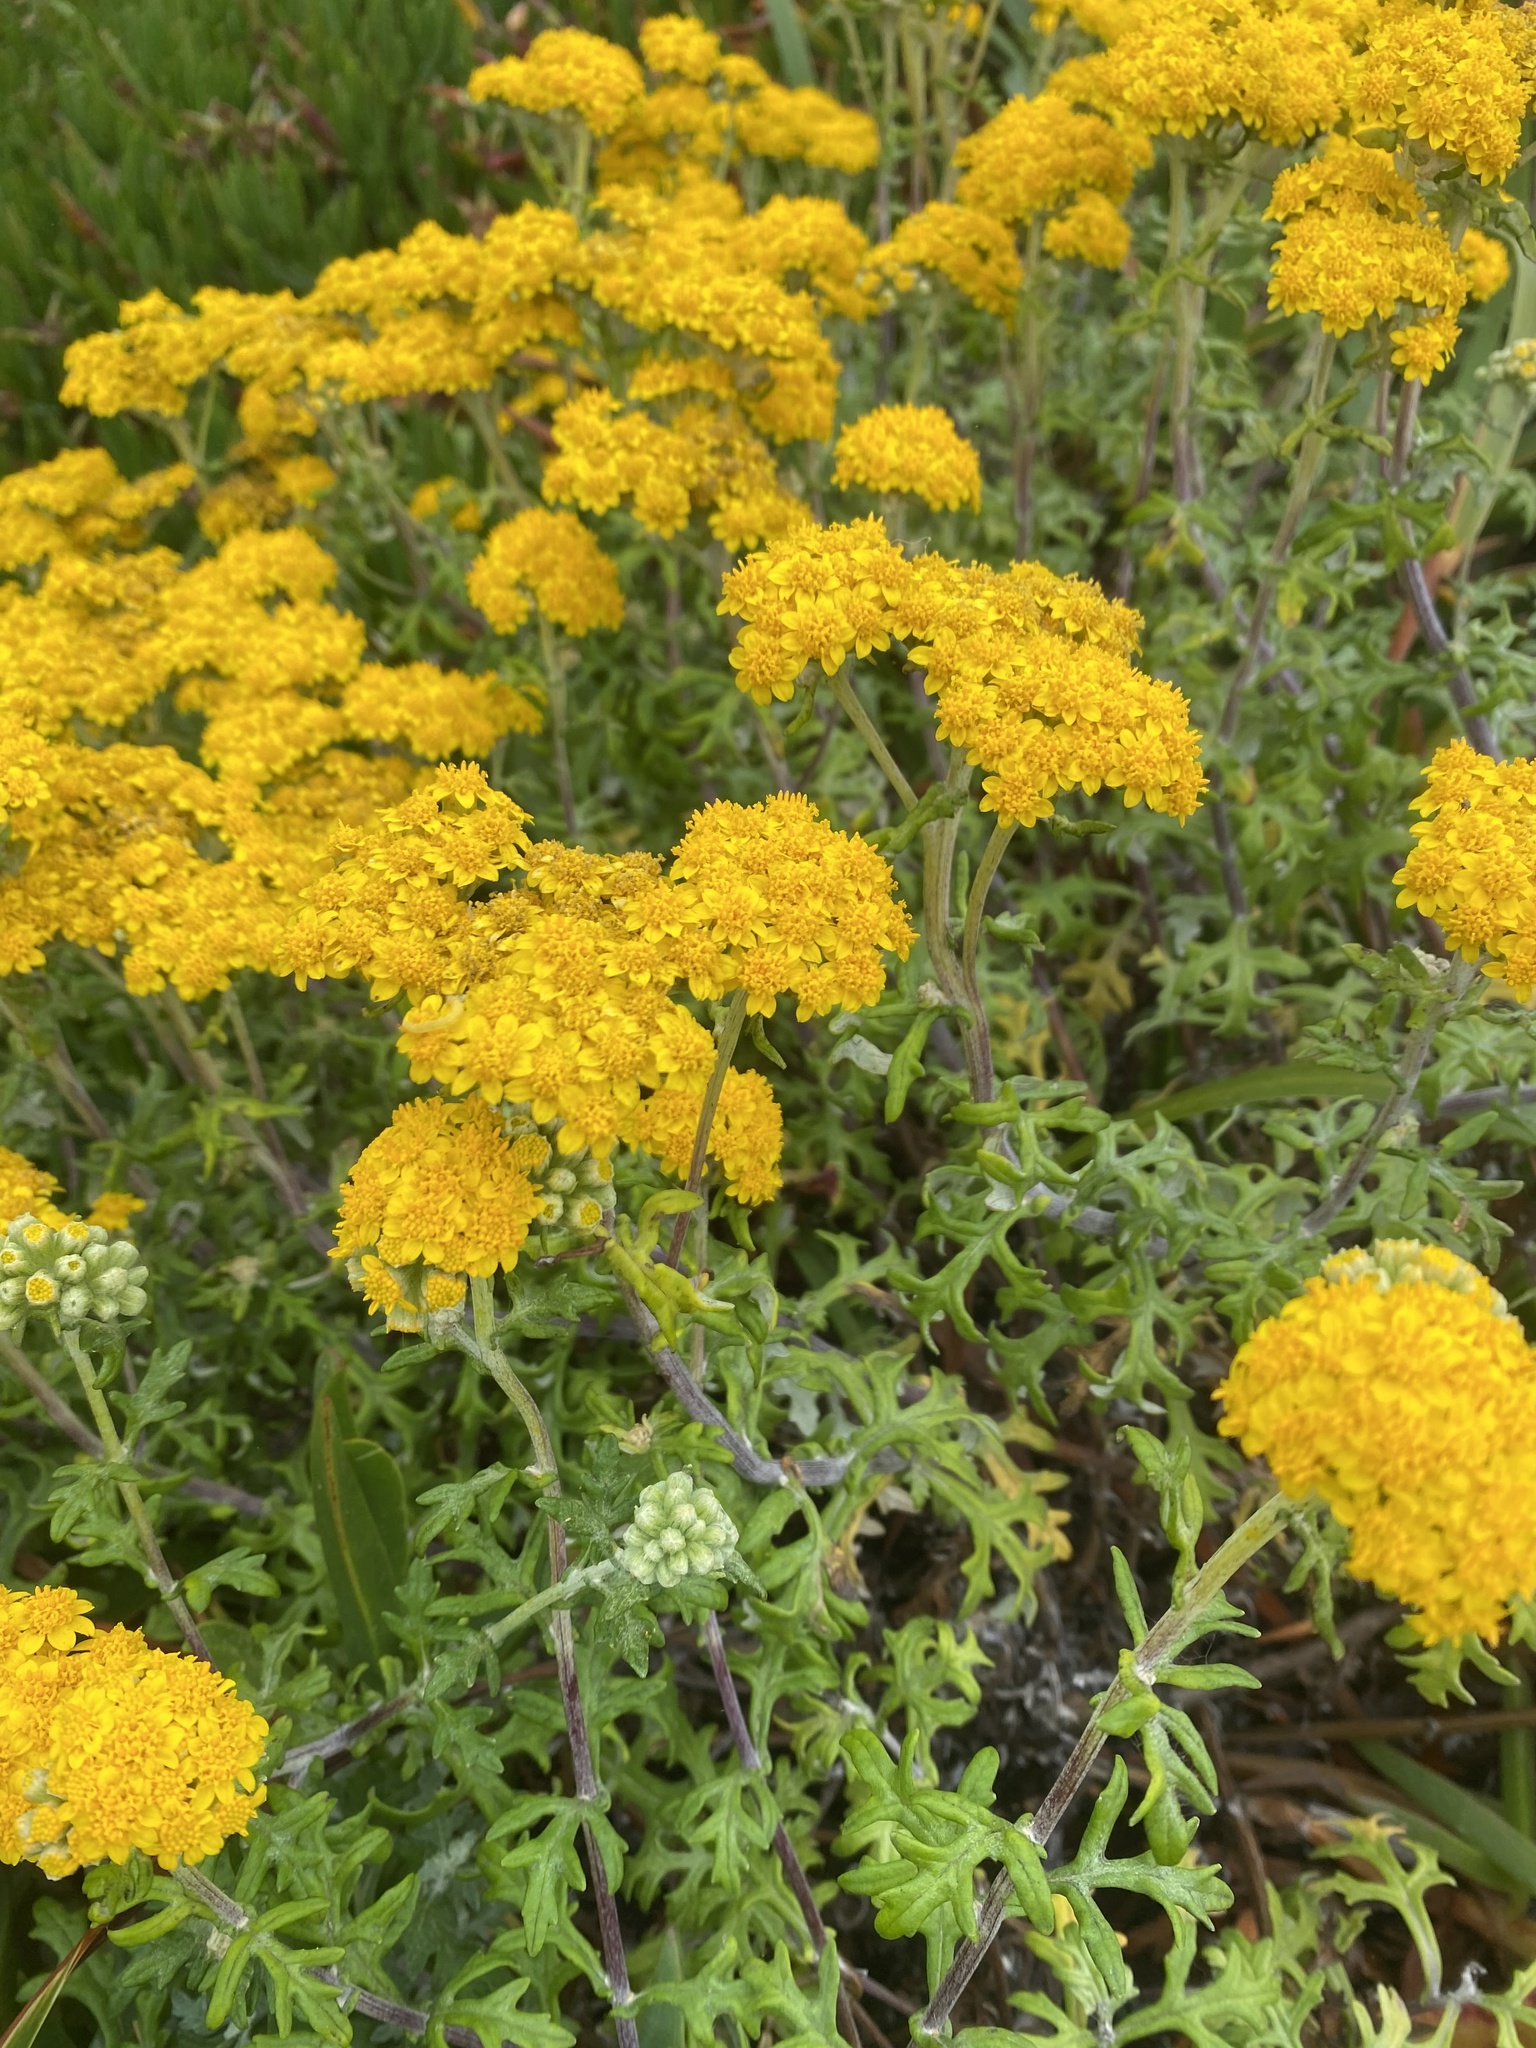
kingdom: Plantae
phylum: Tracheophyta
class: Magnoliopsida
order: Asterales
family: Asteraceae
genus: Eriophyllum
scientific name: Eriophyllum staechadifolium
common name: Lizardtail
